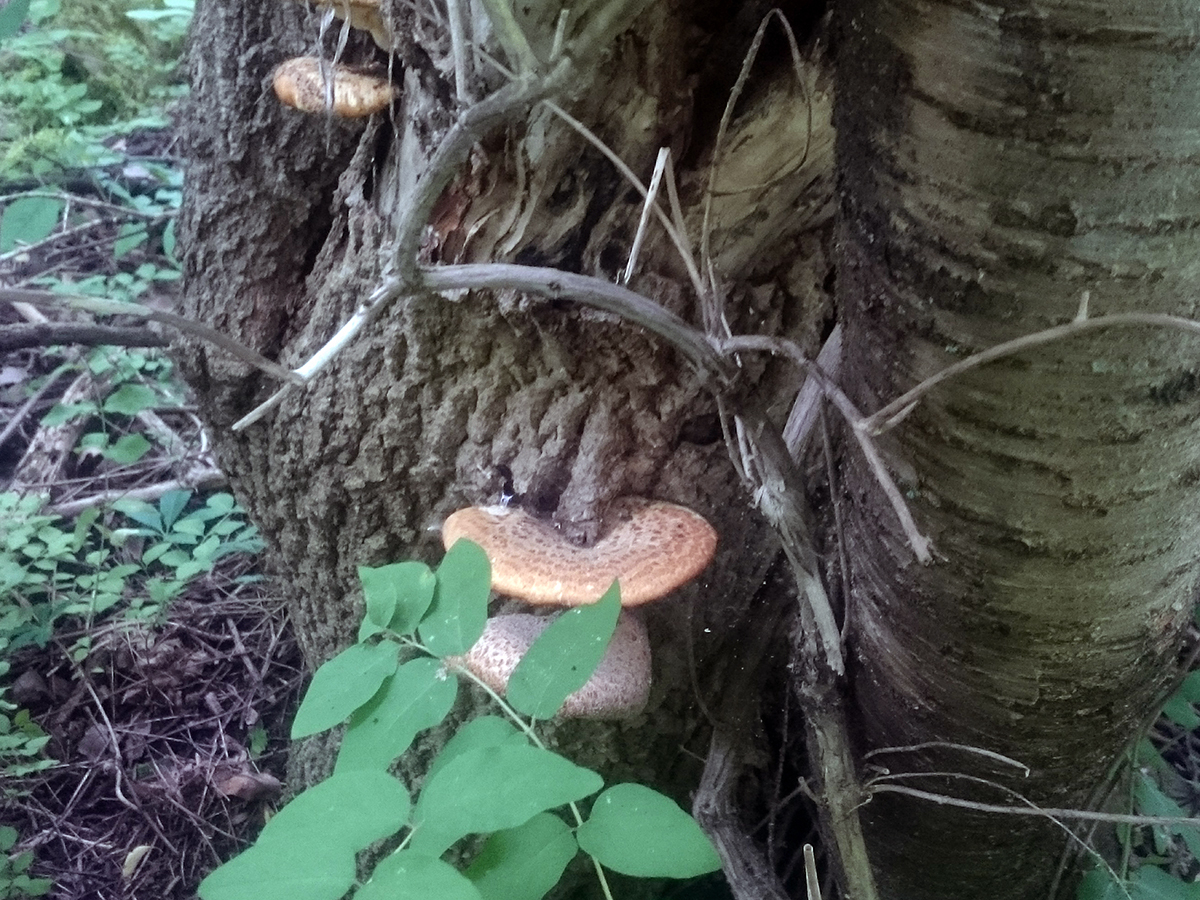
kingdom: Fungi
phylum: Basidiomycota
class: Agaricomycetes
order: Polyporales
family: Polyporaceae
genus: Cerioporus
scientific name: Cerioporus squamosus
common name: Dryad's saddle
